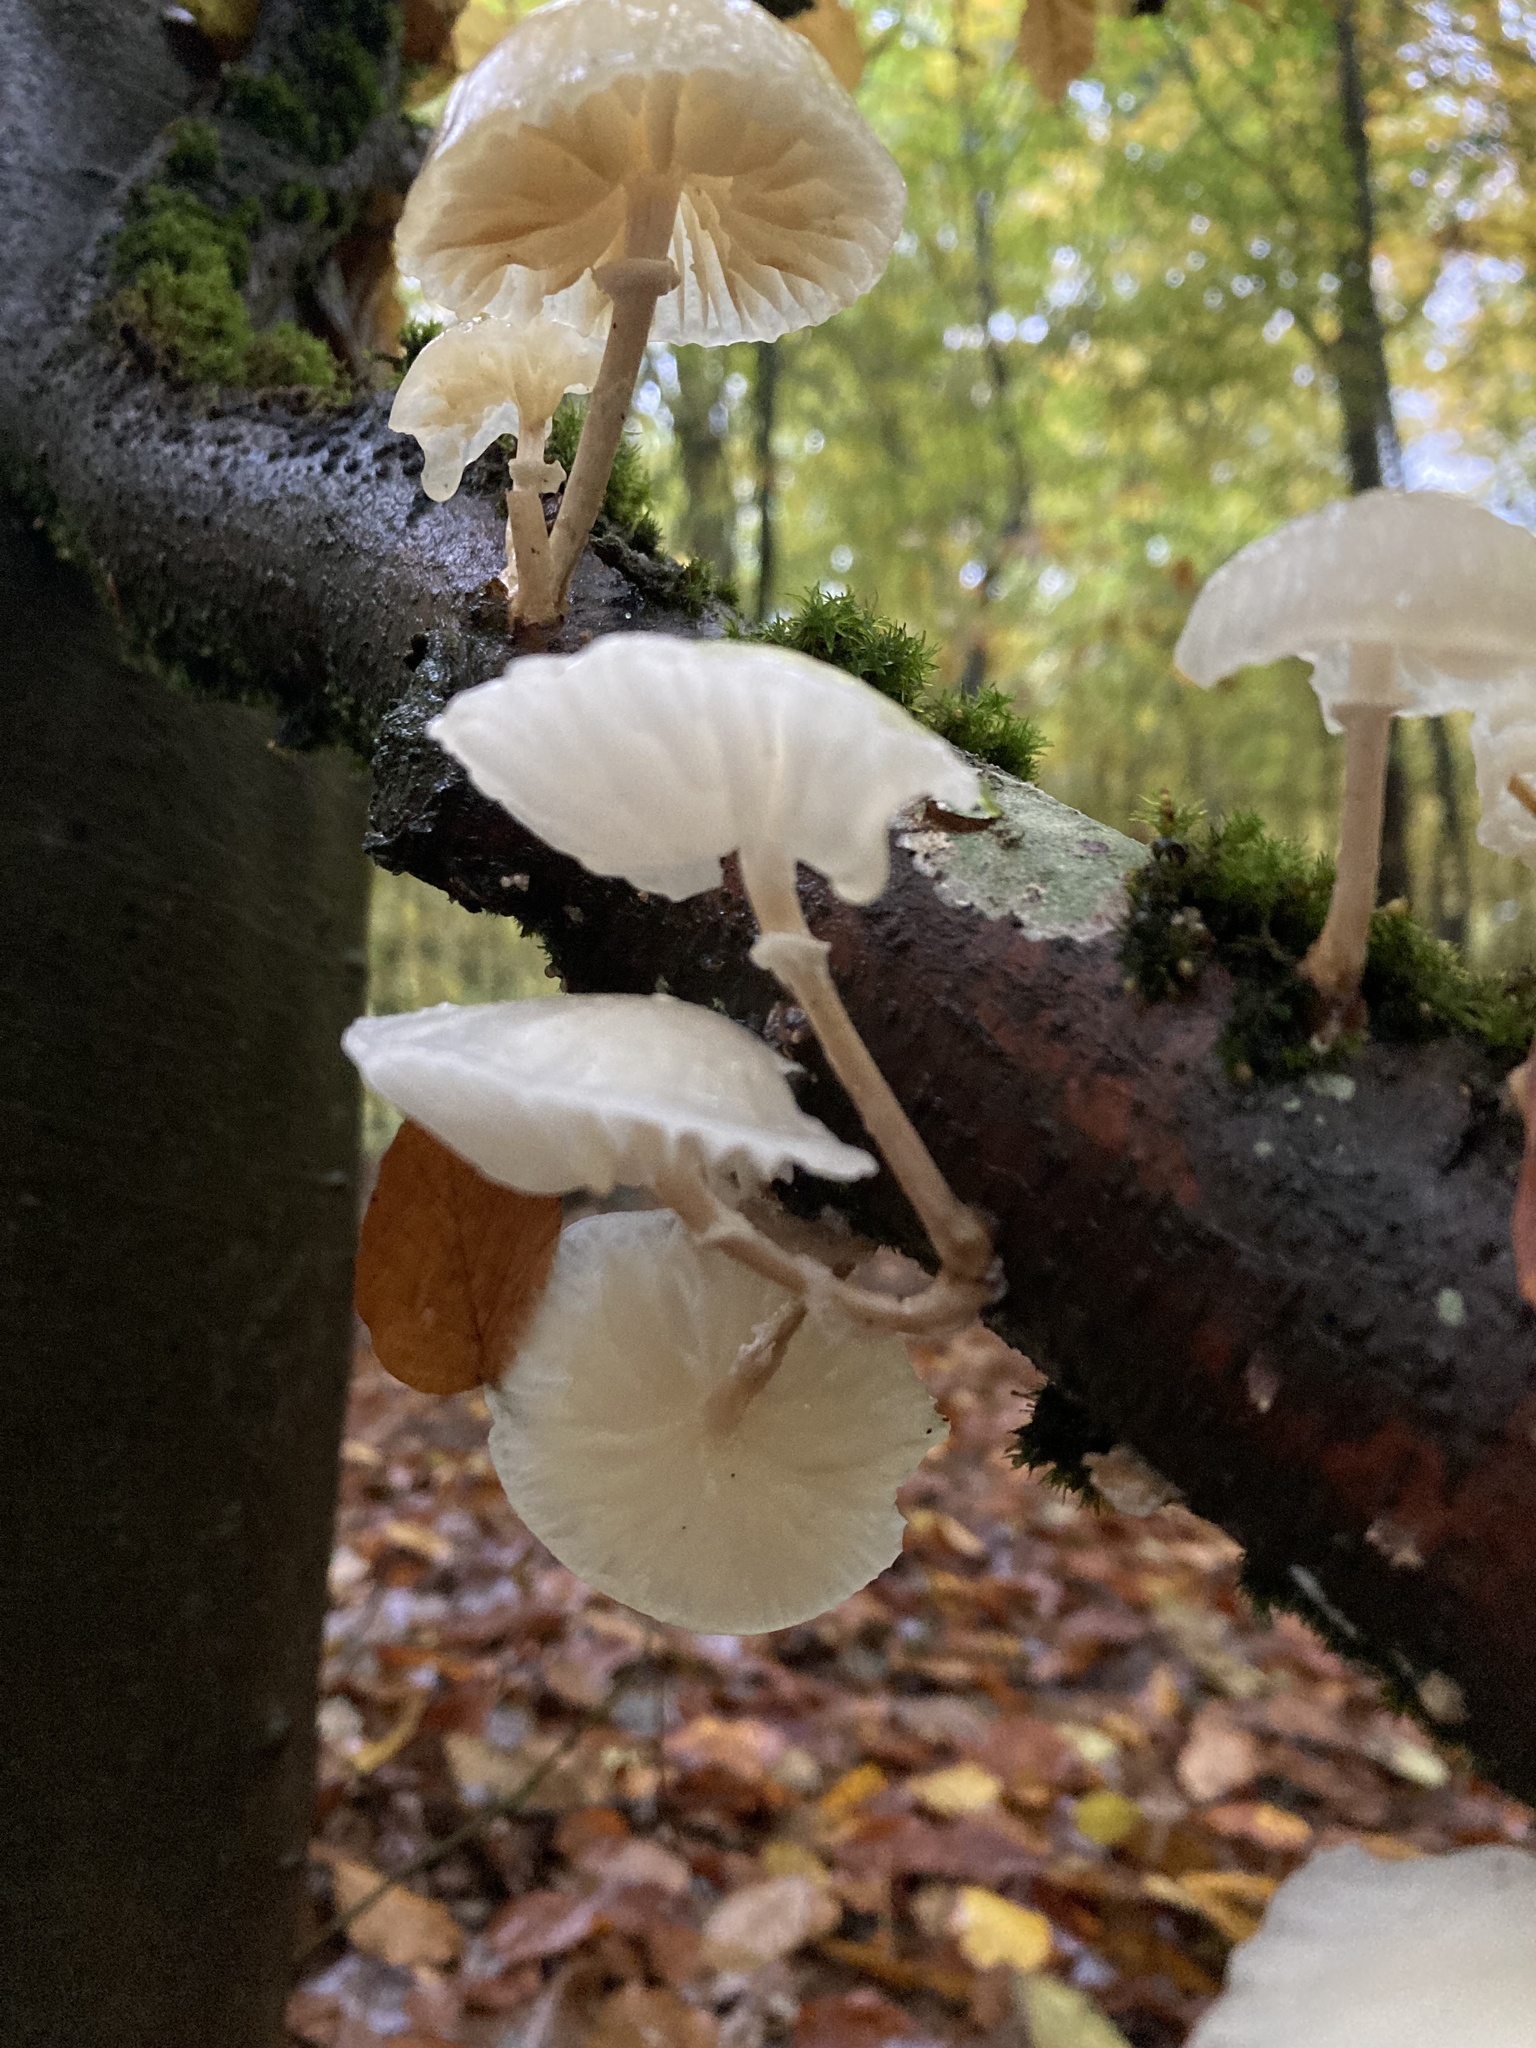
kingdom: Fungi
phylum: Basidiomycota
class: Agaricomycetes
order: Agaricales
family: Physalacriaceae
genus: Mucidula
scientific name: Mucidula mucida
